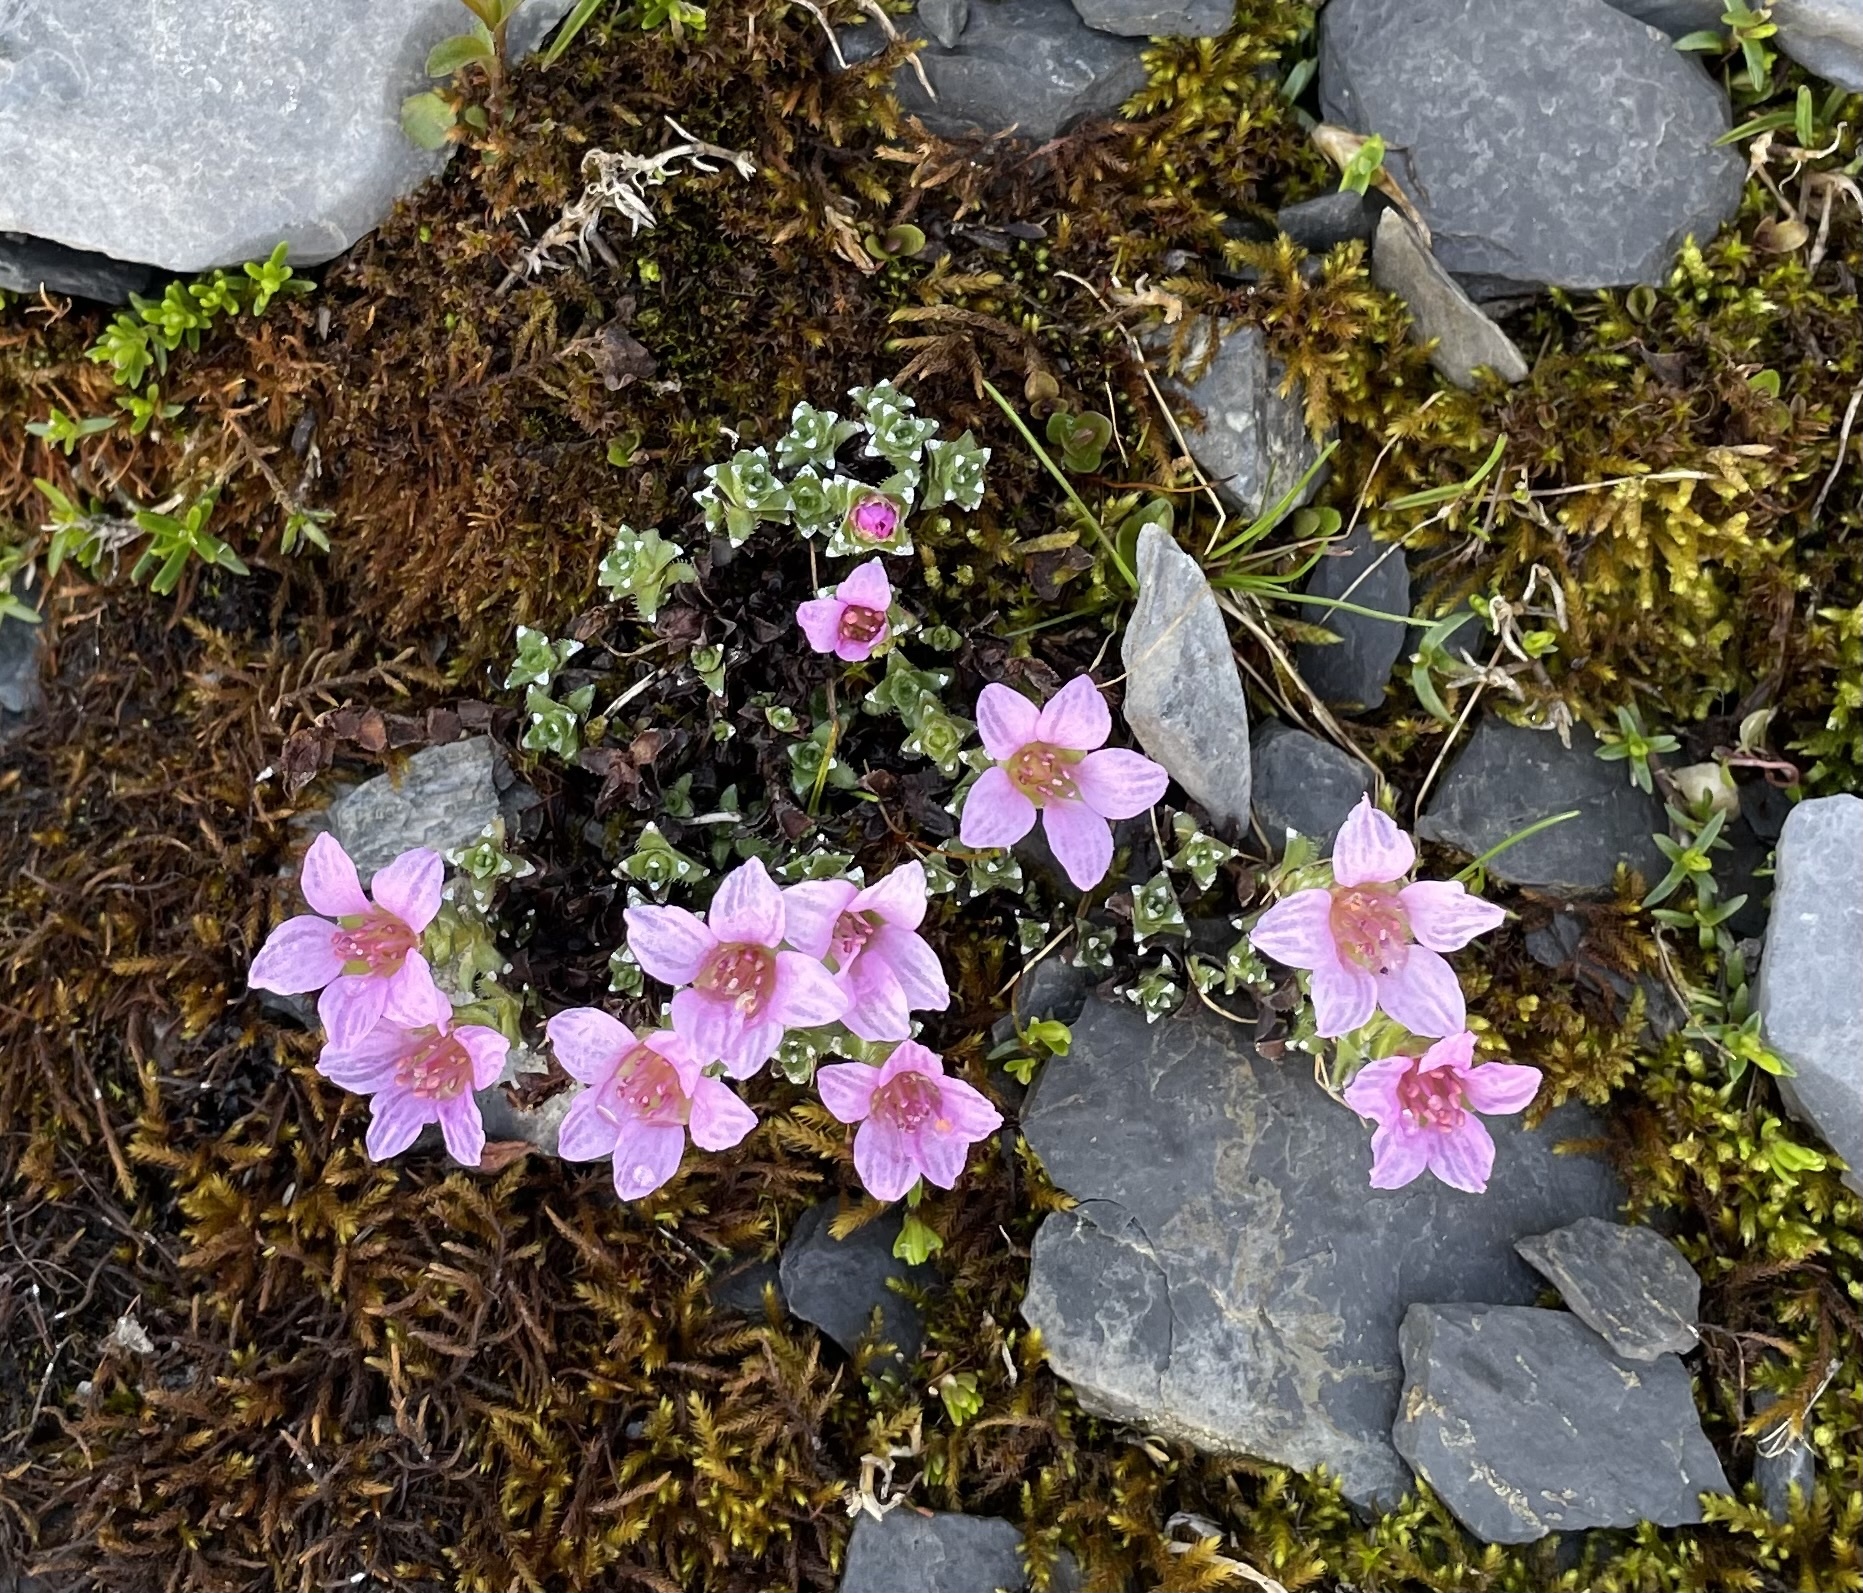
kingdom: Plantae
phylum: Tracheophyta
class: Magnoliopsida
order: Saxifragales
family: Saxifragaceae
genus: Saxifraga
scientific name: Saxifraga oppositifolia
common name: Purple saxifrage
